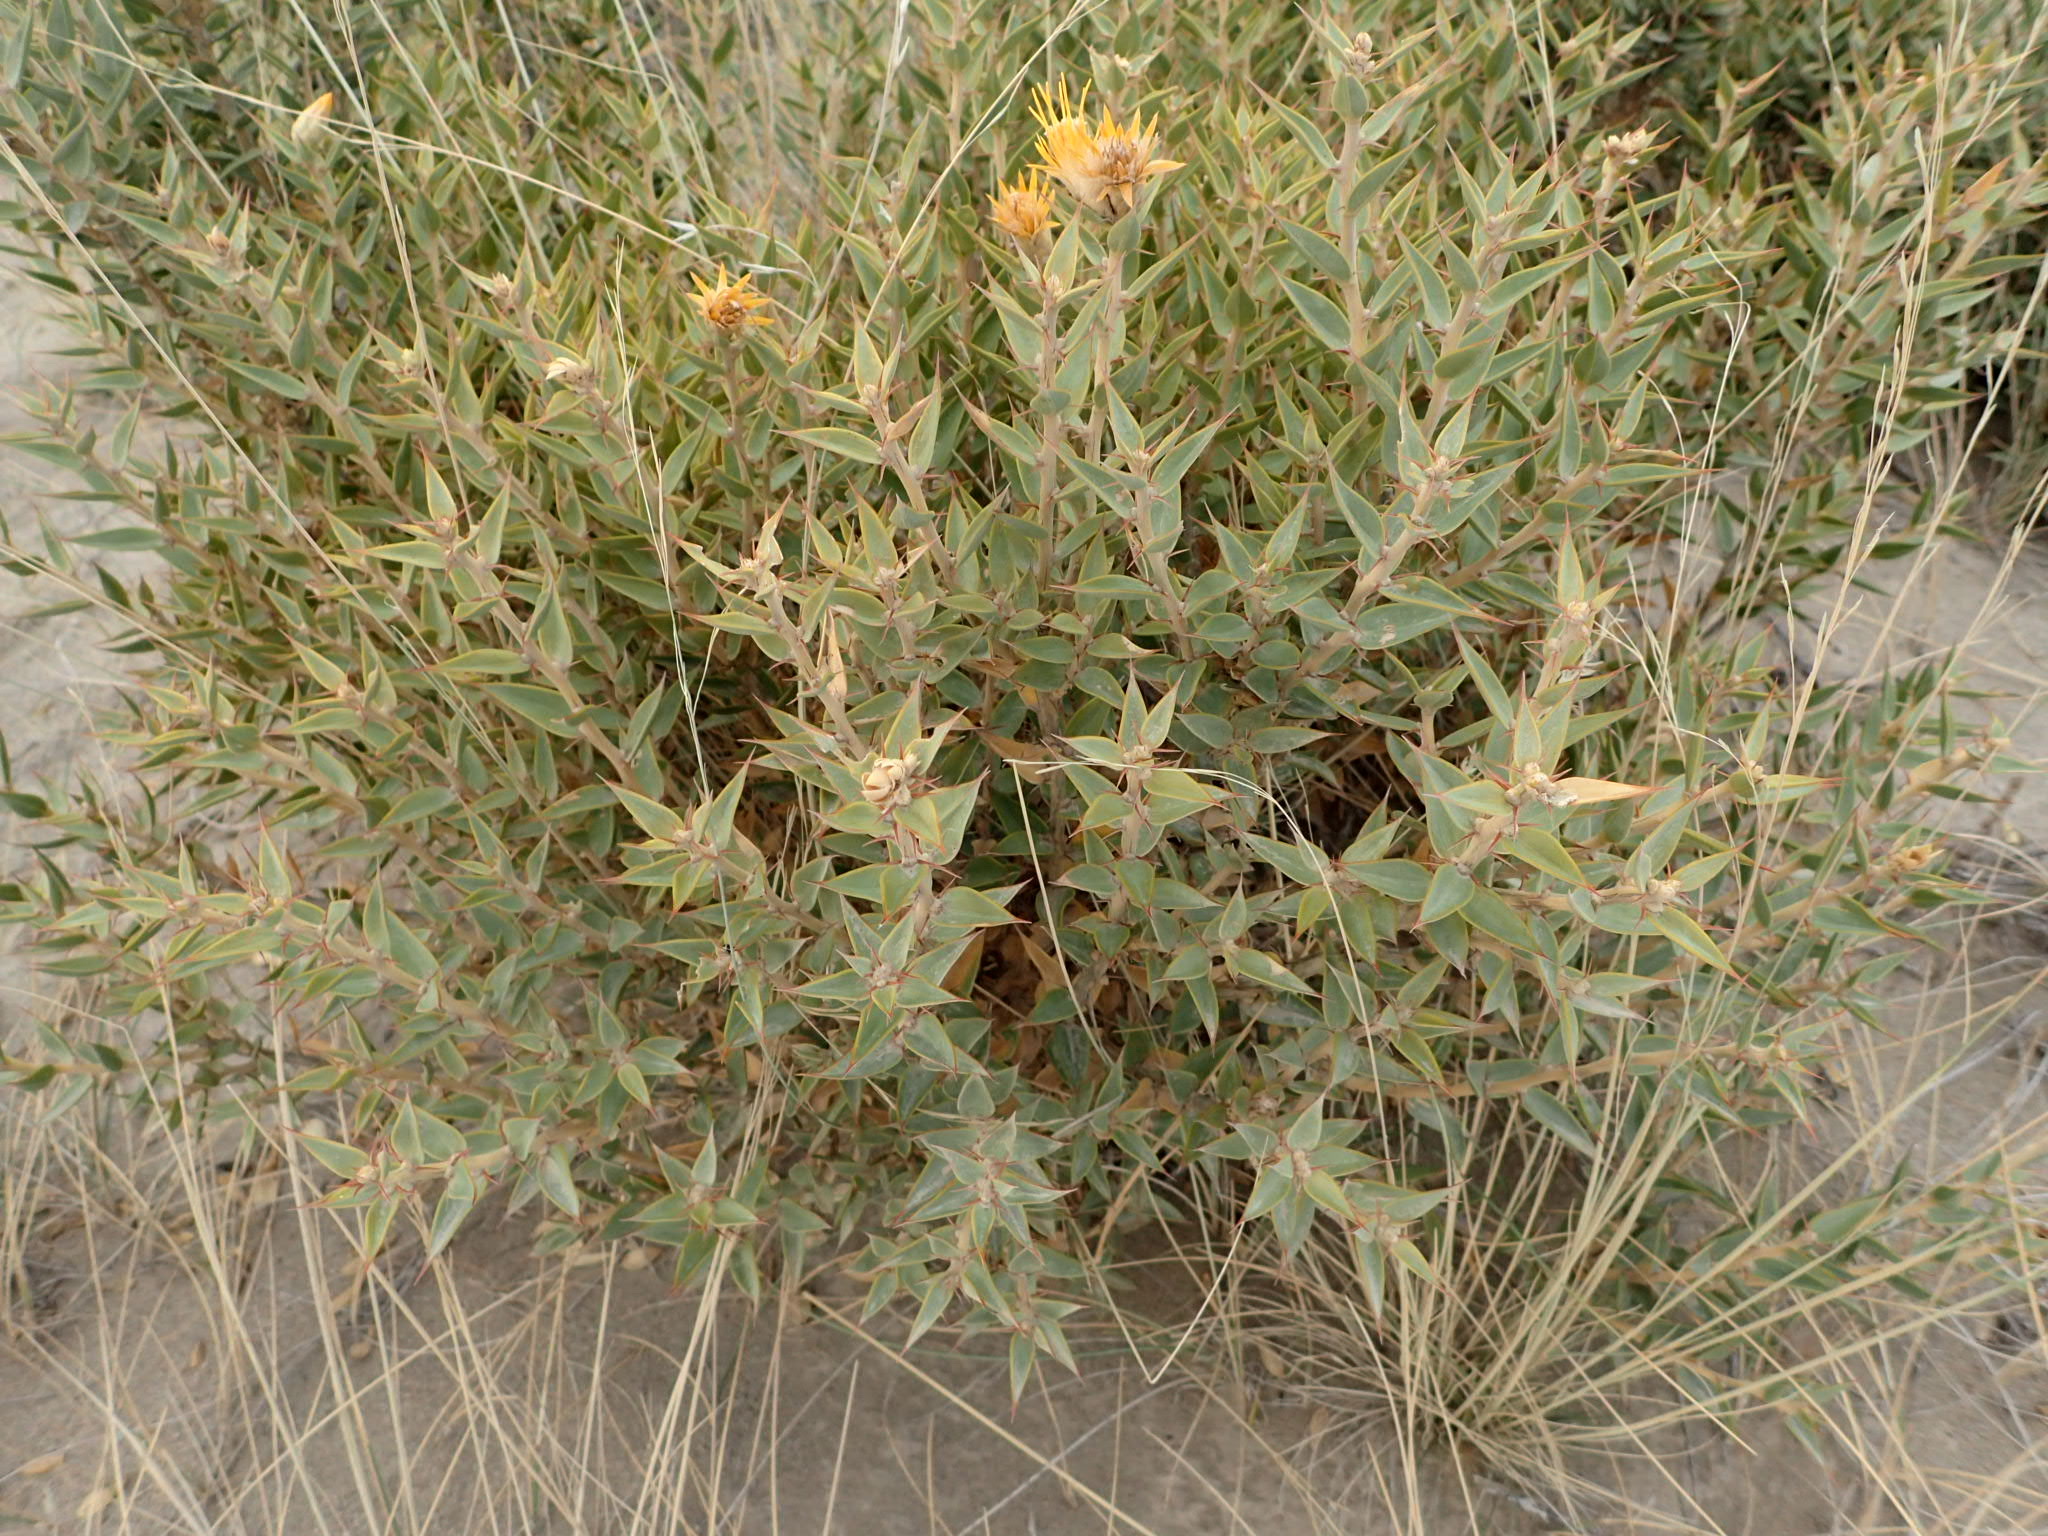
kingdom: Plantae
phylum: Tracheophyta
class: Magnoliopsida
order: Asterales
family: Asteraceae
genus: Chuquiraga
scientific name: Chuquiraga avellanedae
